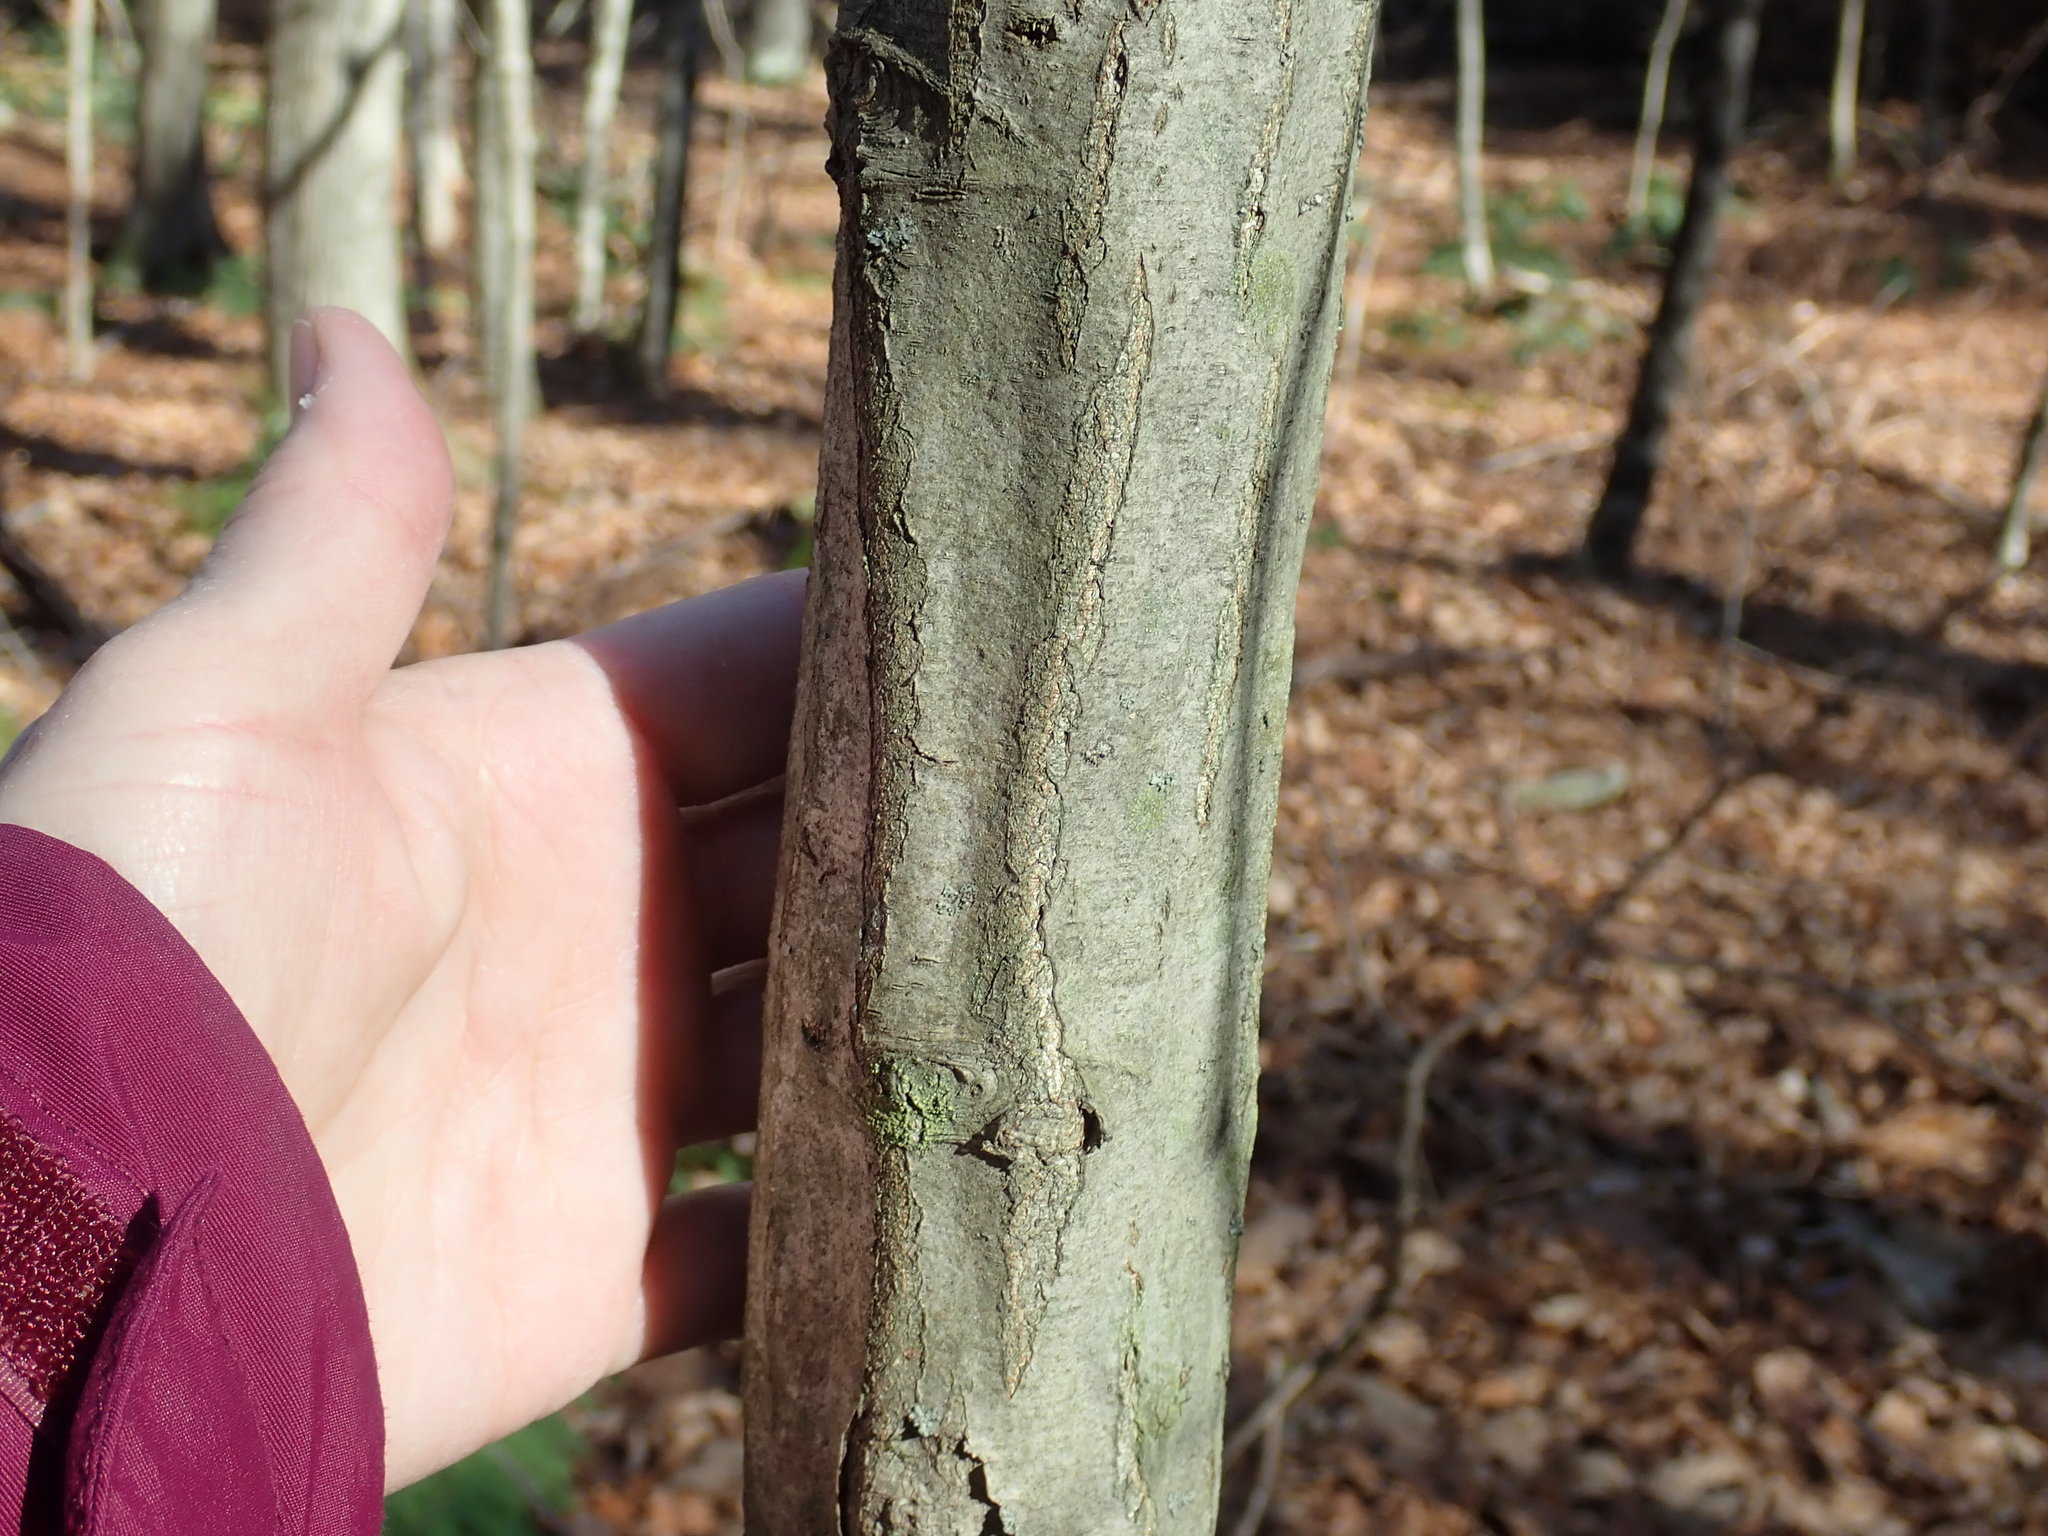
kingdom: Plantae
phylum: Tracheophyta
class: Magnoliopsida
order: Fagales
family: Betulaceae
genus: Carpinus
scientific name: Carpinus caroliniana
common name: American hornbeam
